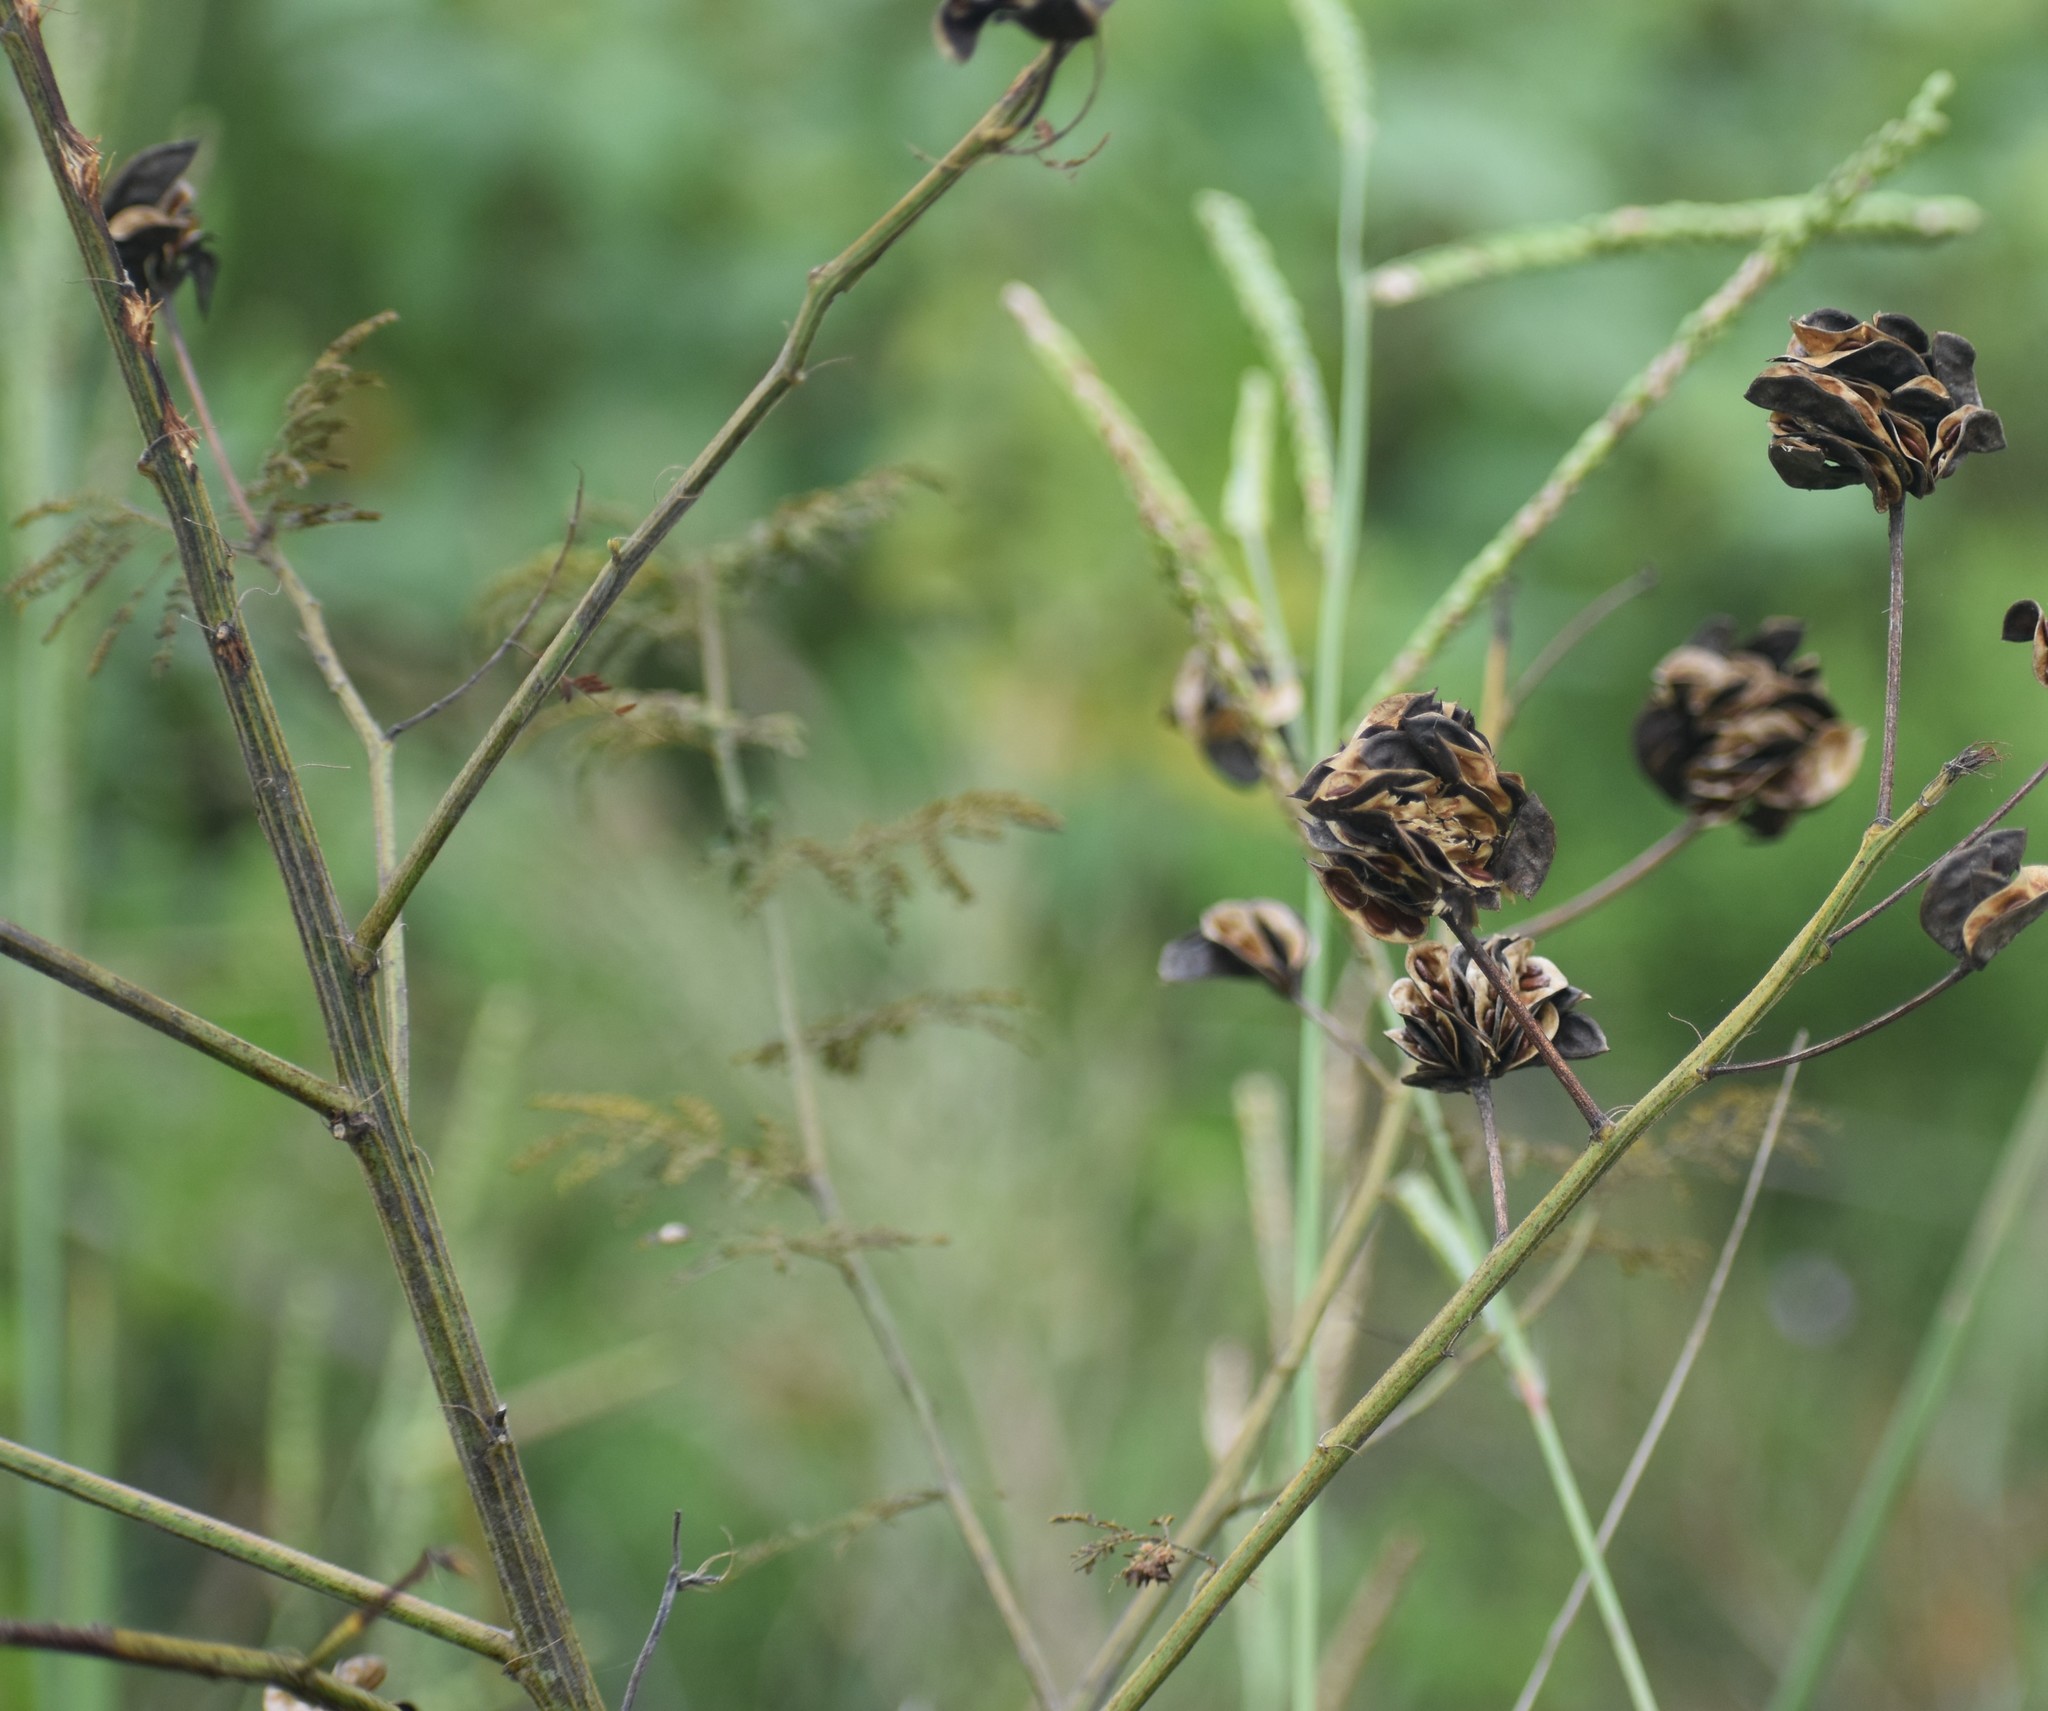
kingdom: Plantae
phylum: Tracheophyta
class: Magnoliopsida
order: Fabales
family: Fabaceae
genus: Desmanthus
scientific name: Desmanthus illinoensis
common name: Illinois bundle-flower
